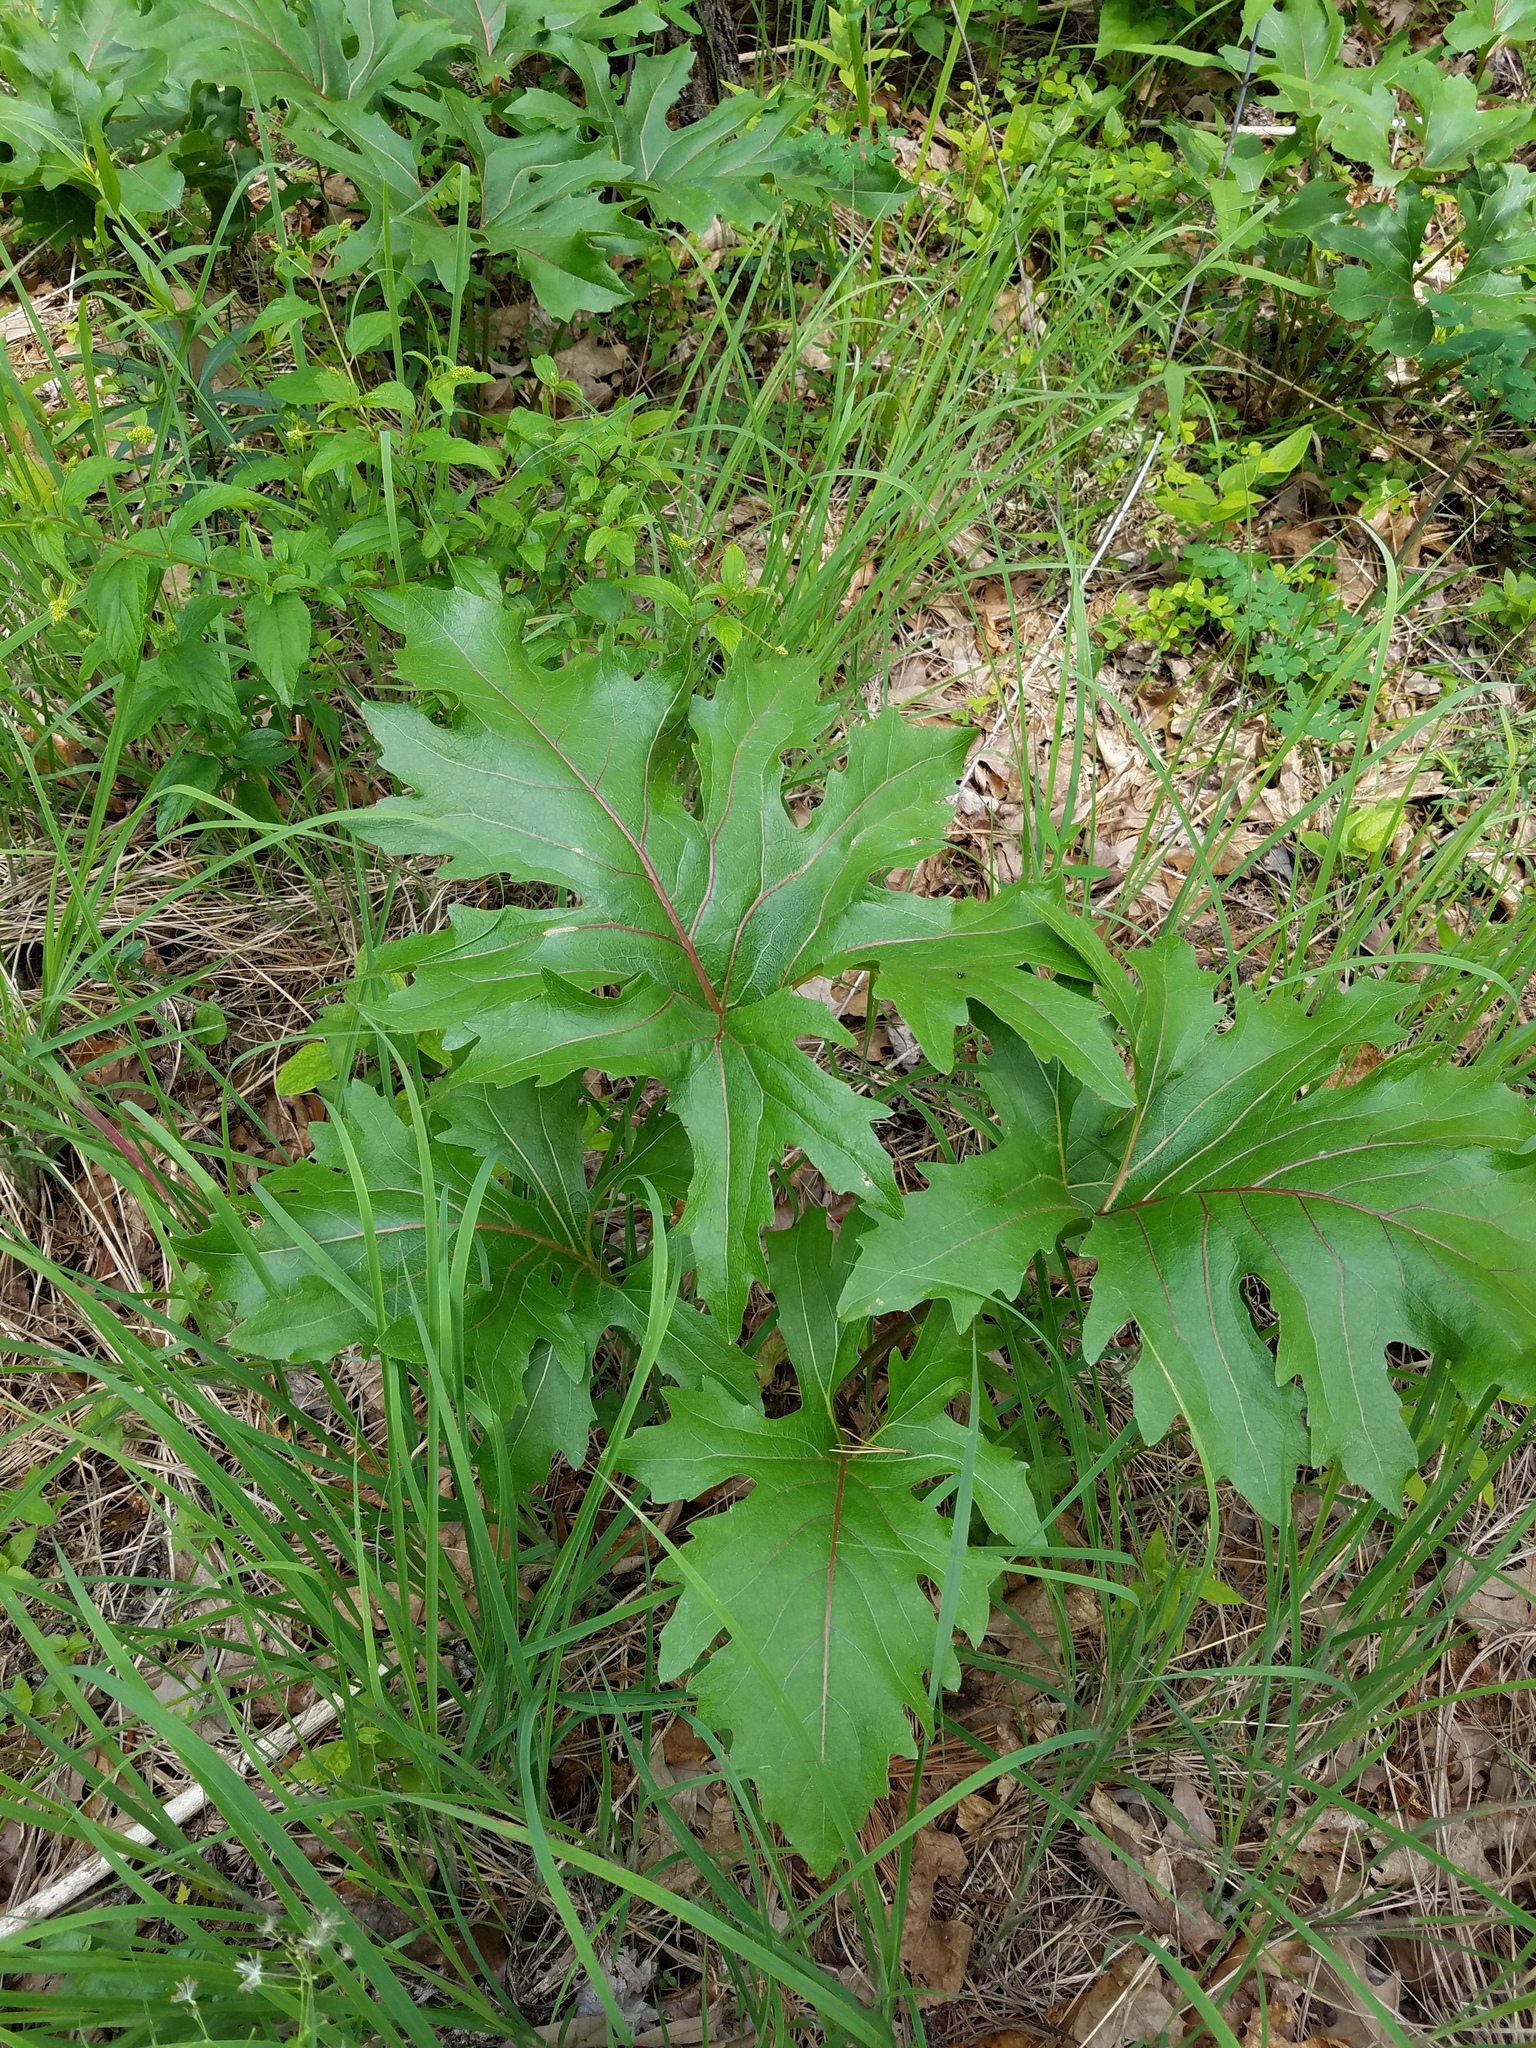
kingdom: Plantae
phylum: Tracheophyta
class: Magnoliopsida
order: Asterales
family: Asteraceae
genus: Silphium
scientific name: Silphium compositum
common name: Lesser basal-leaf rosinweed
